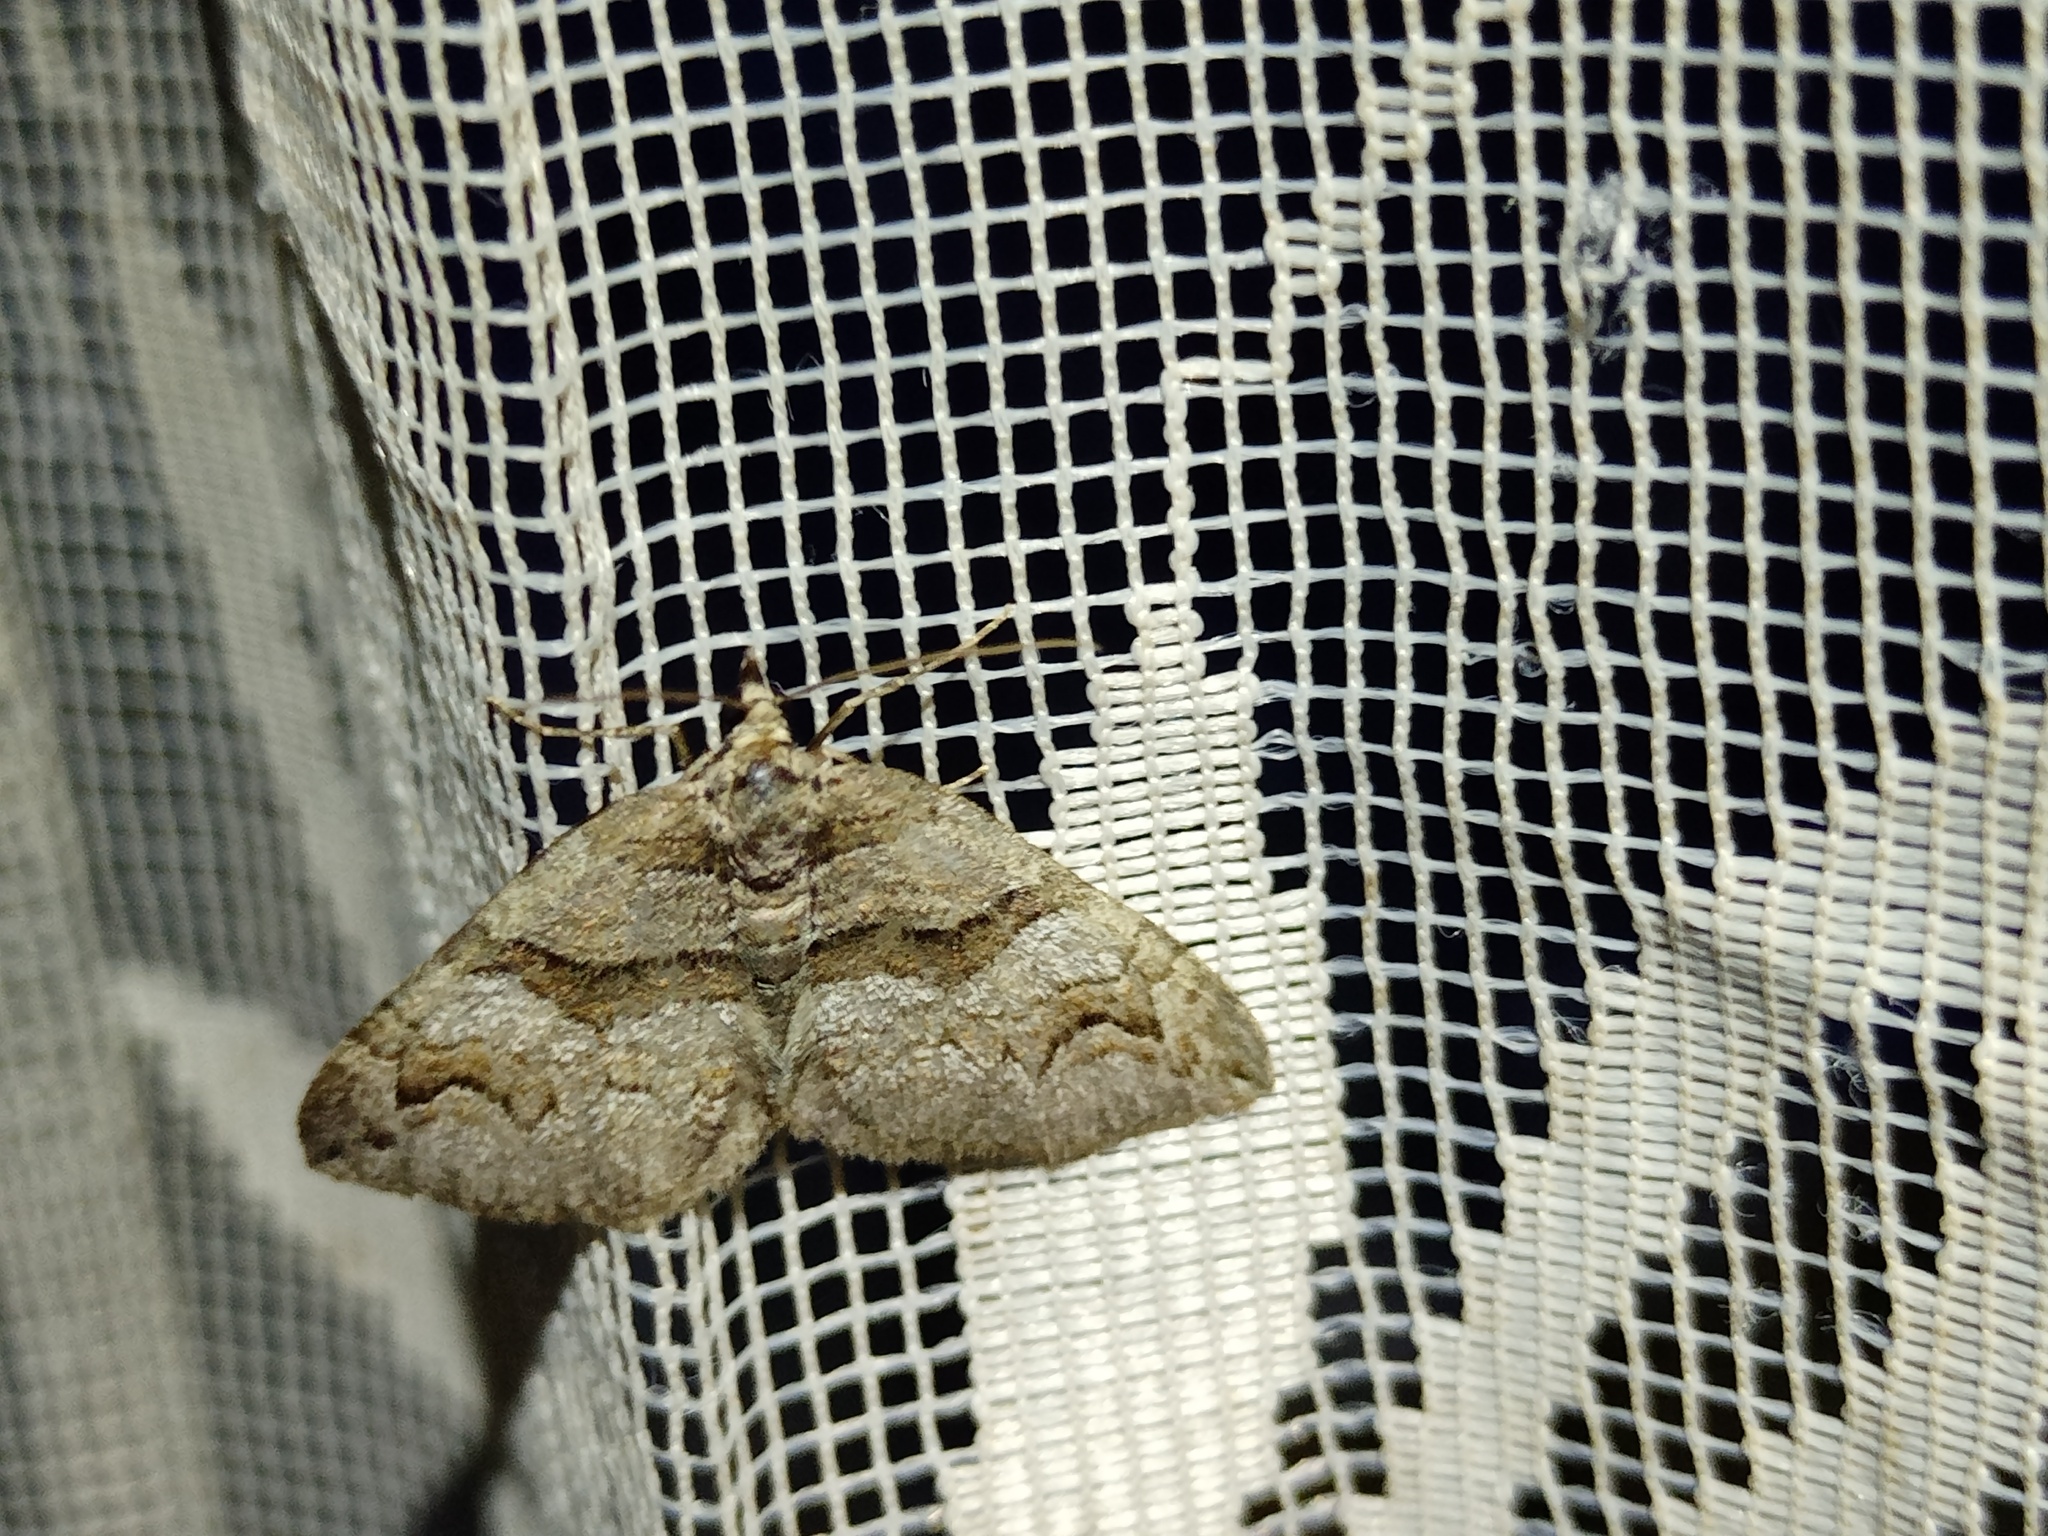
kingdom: Animalia
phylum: Arthropoda
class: Insecta
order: Lepidoptera
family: Geometridae
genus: Pareulype
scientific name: Pareulype berberata
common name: Barberry carpet
